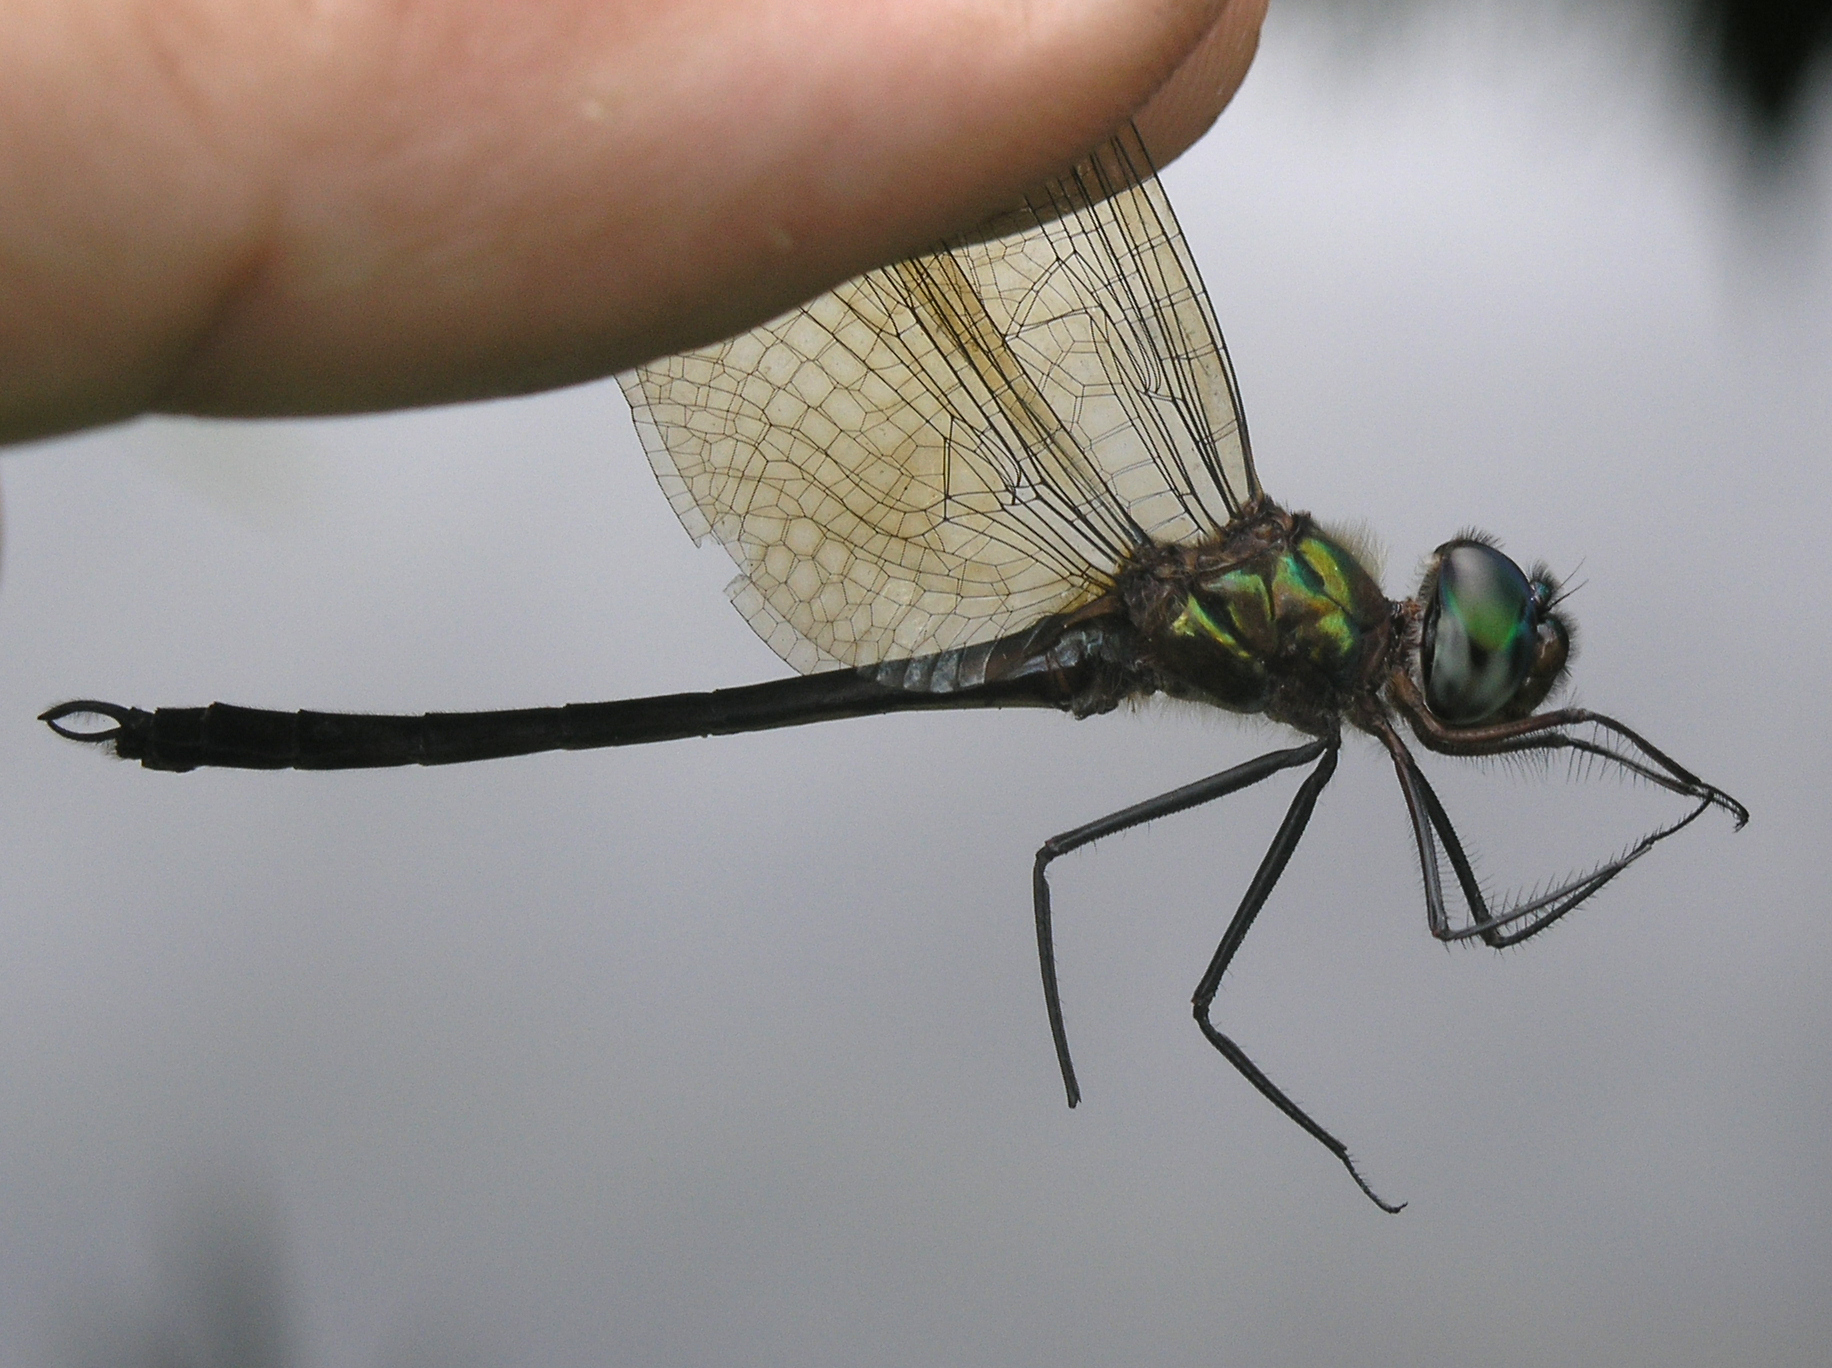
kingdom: Animalia
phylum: Arthropoda
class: Insecta
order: Odonata
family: Corduliidae
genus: Hemicordulia
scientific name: Hemicordulia tenera
